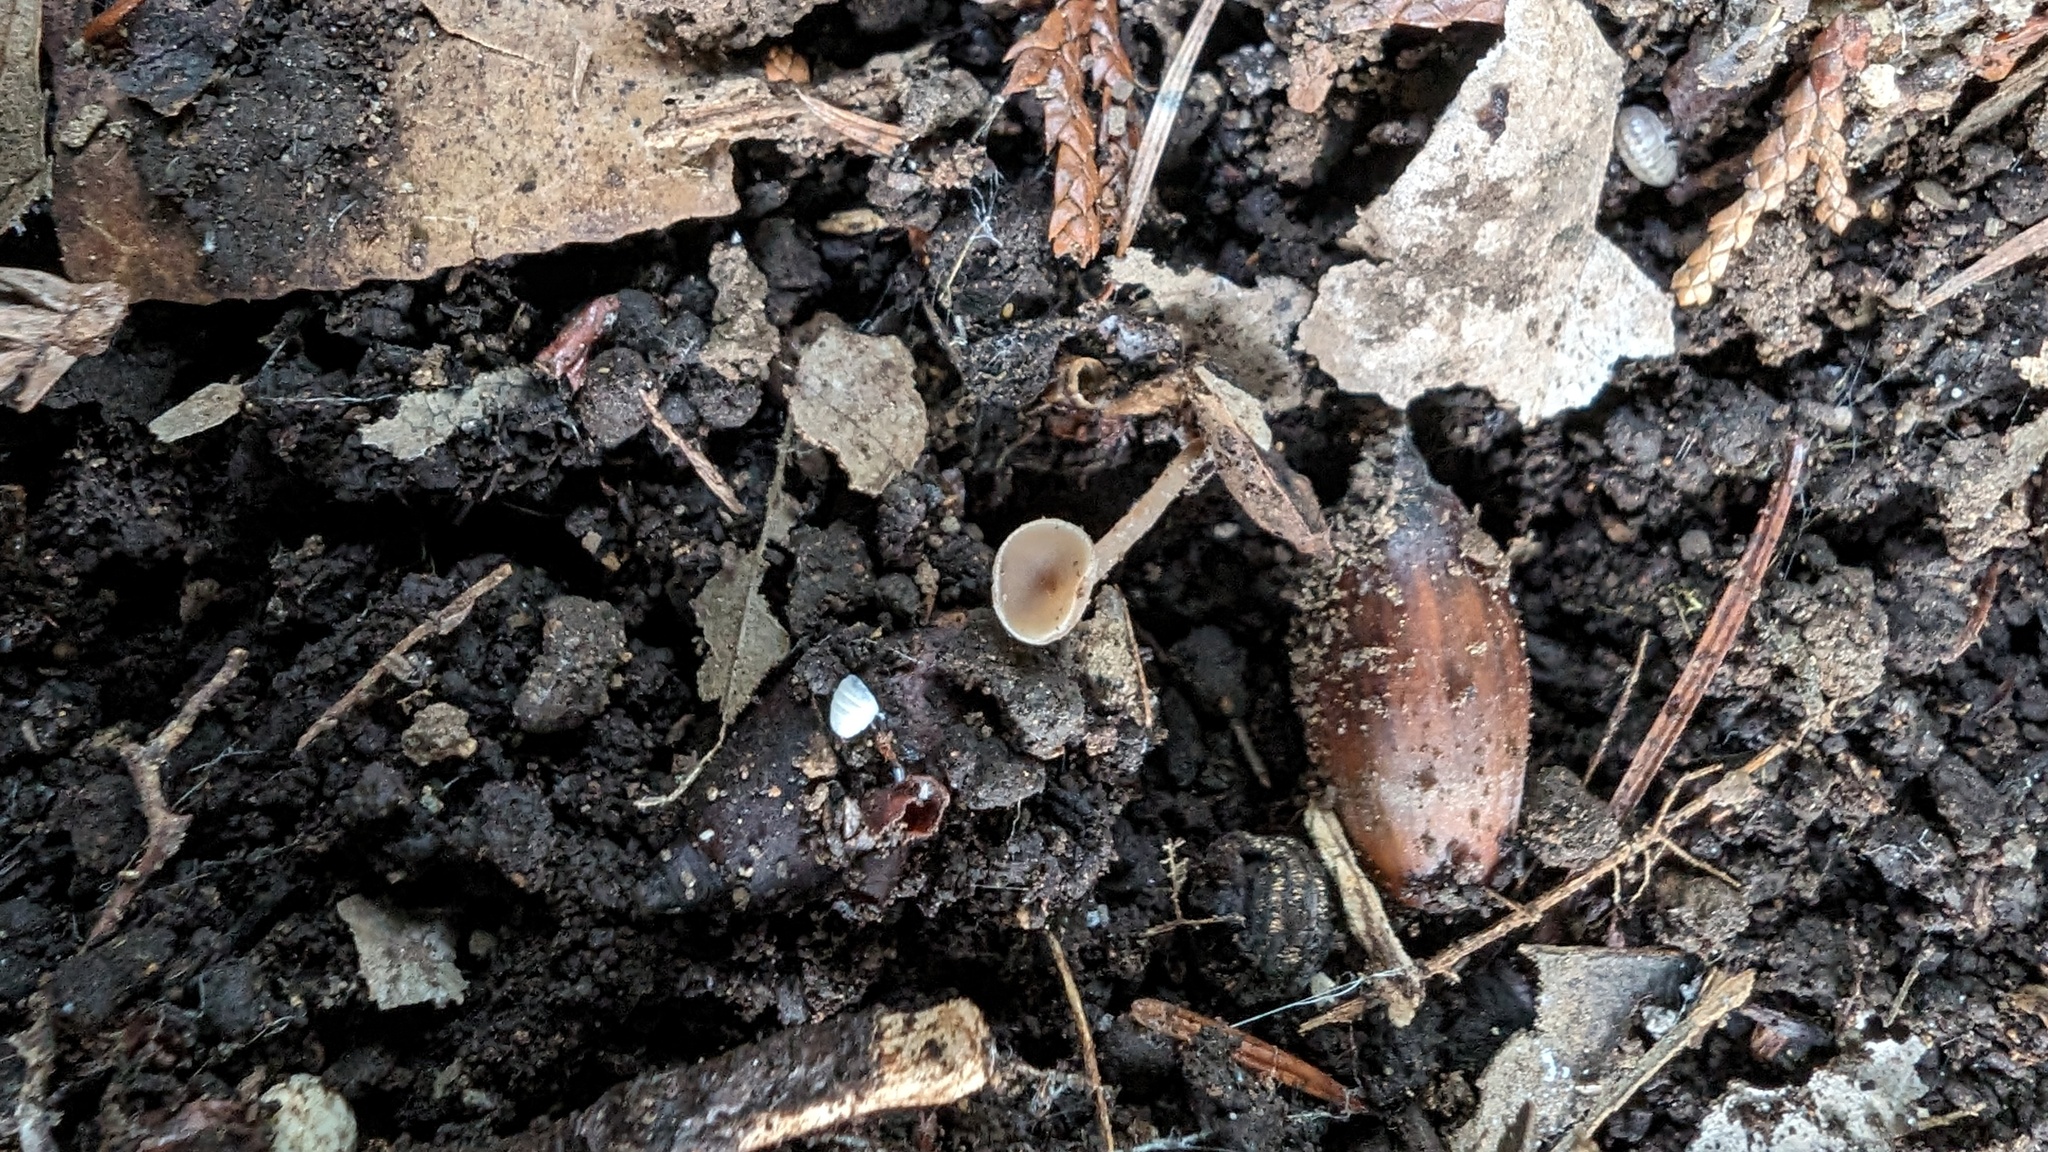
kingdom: Fungi
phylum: Ascomycota
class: Leotiomycetes
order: Helotiales
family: Sclerotiniaceae
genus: Ciborinia
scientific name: Ciborinia camelliae
